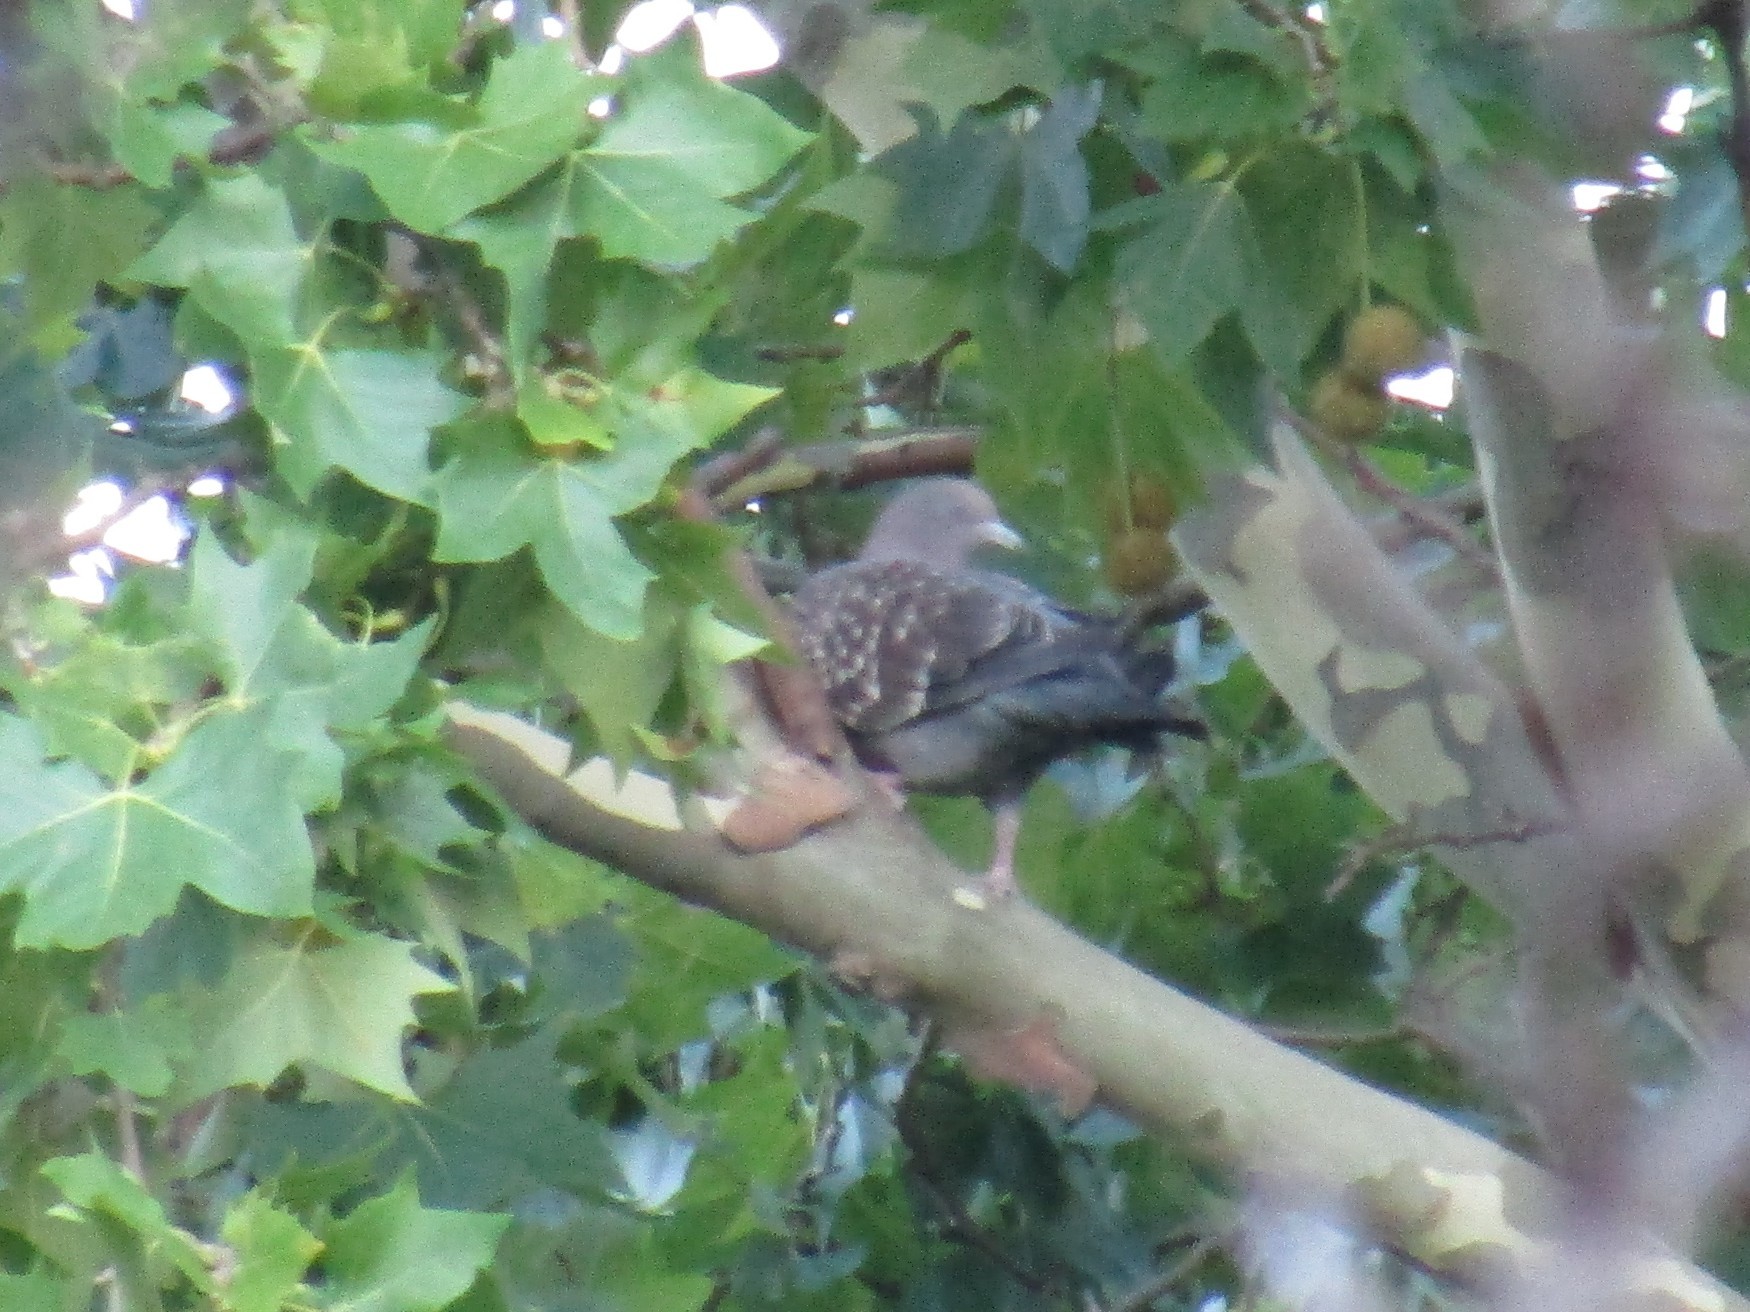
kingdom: Animalia
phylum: Chordata
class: Aves
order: Columbiformes
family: Columbidae
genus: Patagioenas
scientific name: Patagioenas maculosa
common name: Spot-winged pigeon
